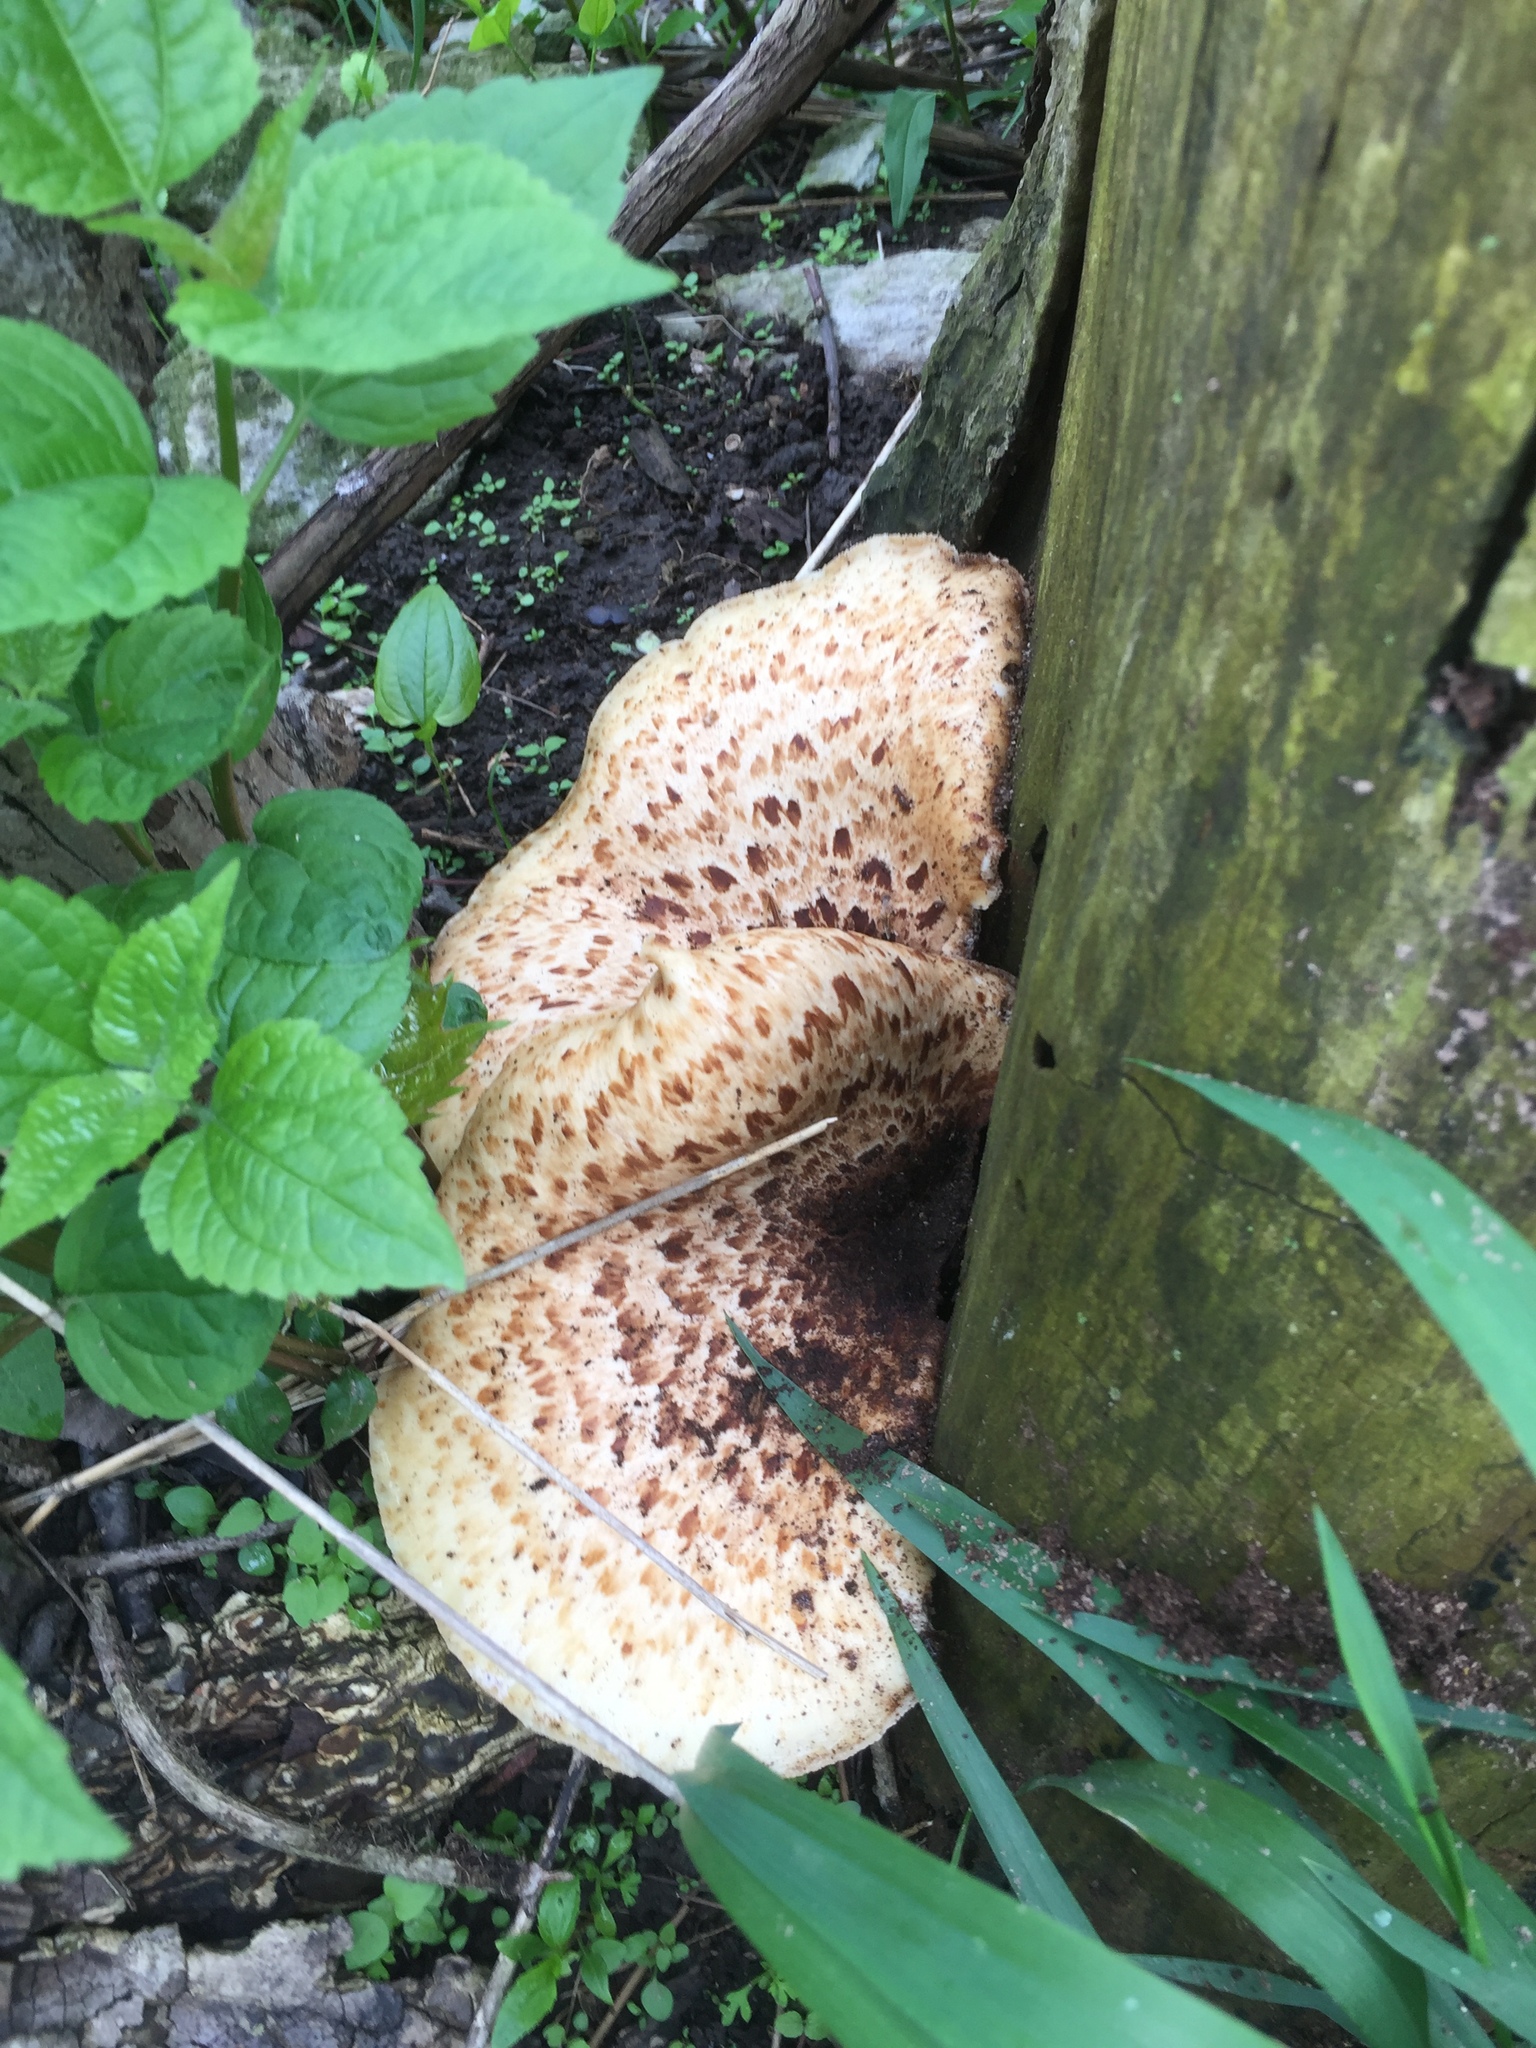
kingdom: Fungi
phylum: Basidiomycota
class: Agaricomycetes
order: Polyporales
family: Polyporaceae
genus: Cerioporus
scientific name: Cerioporus squamosus
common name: Dryad's saddle
